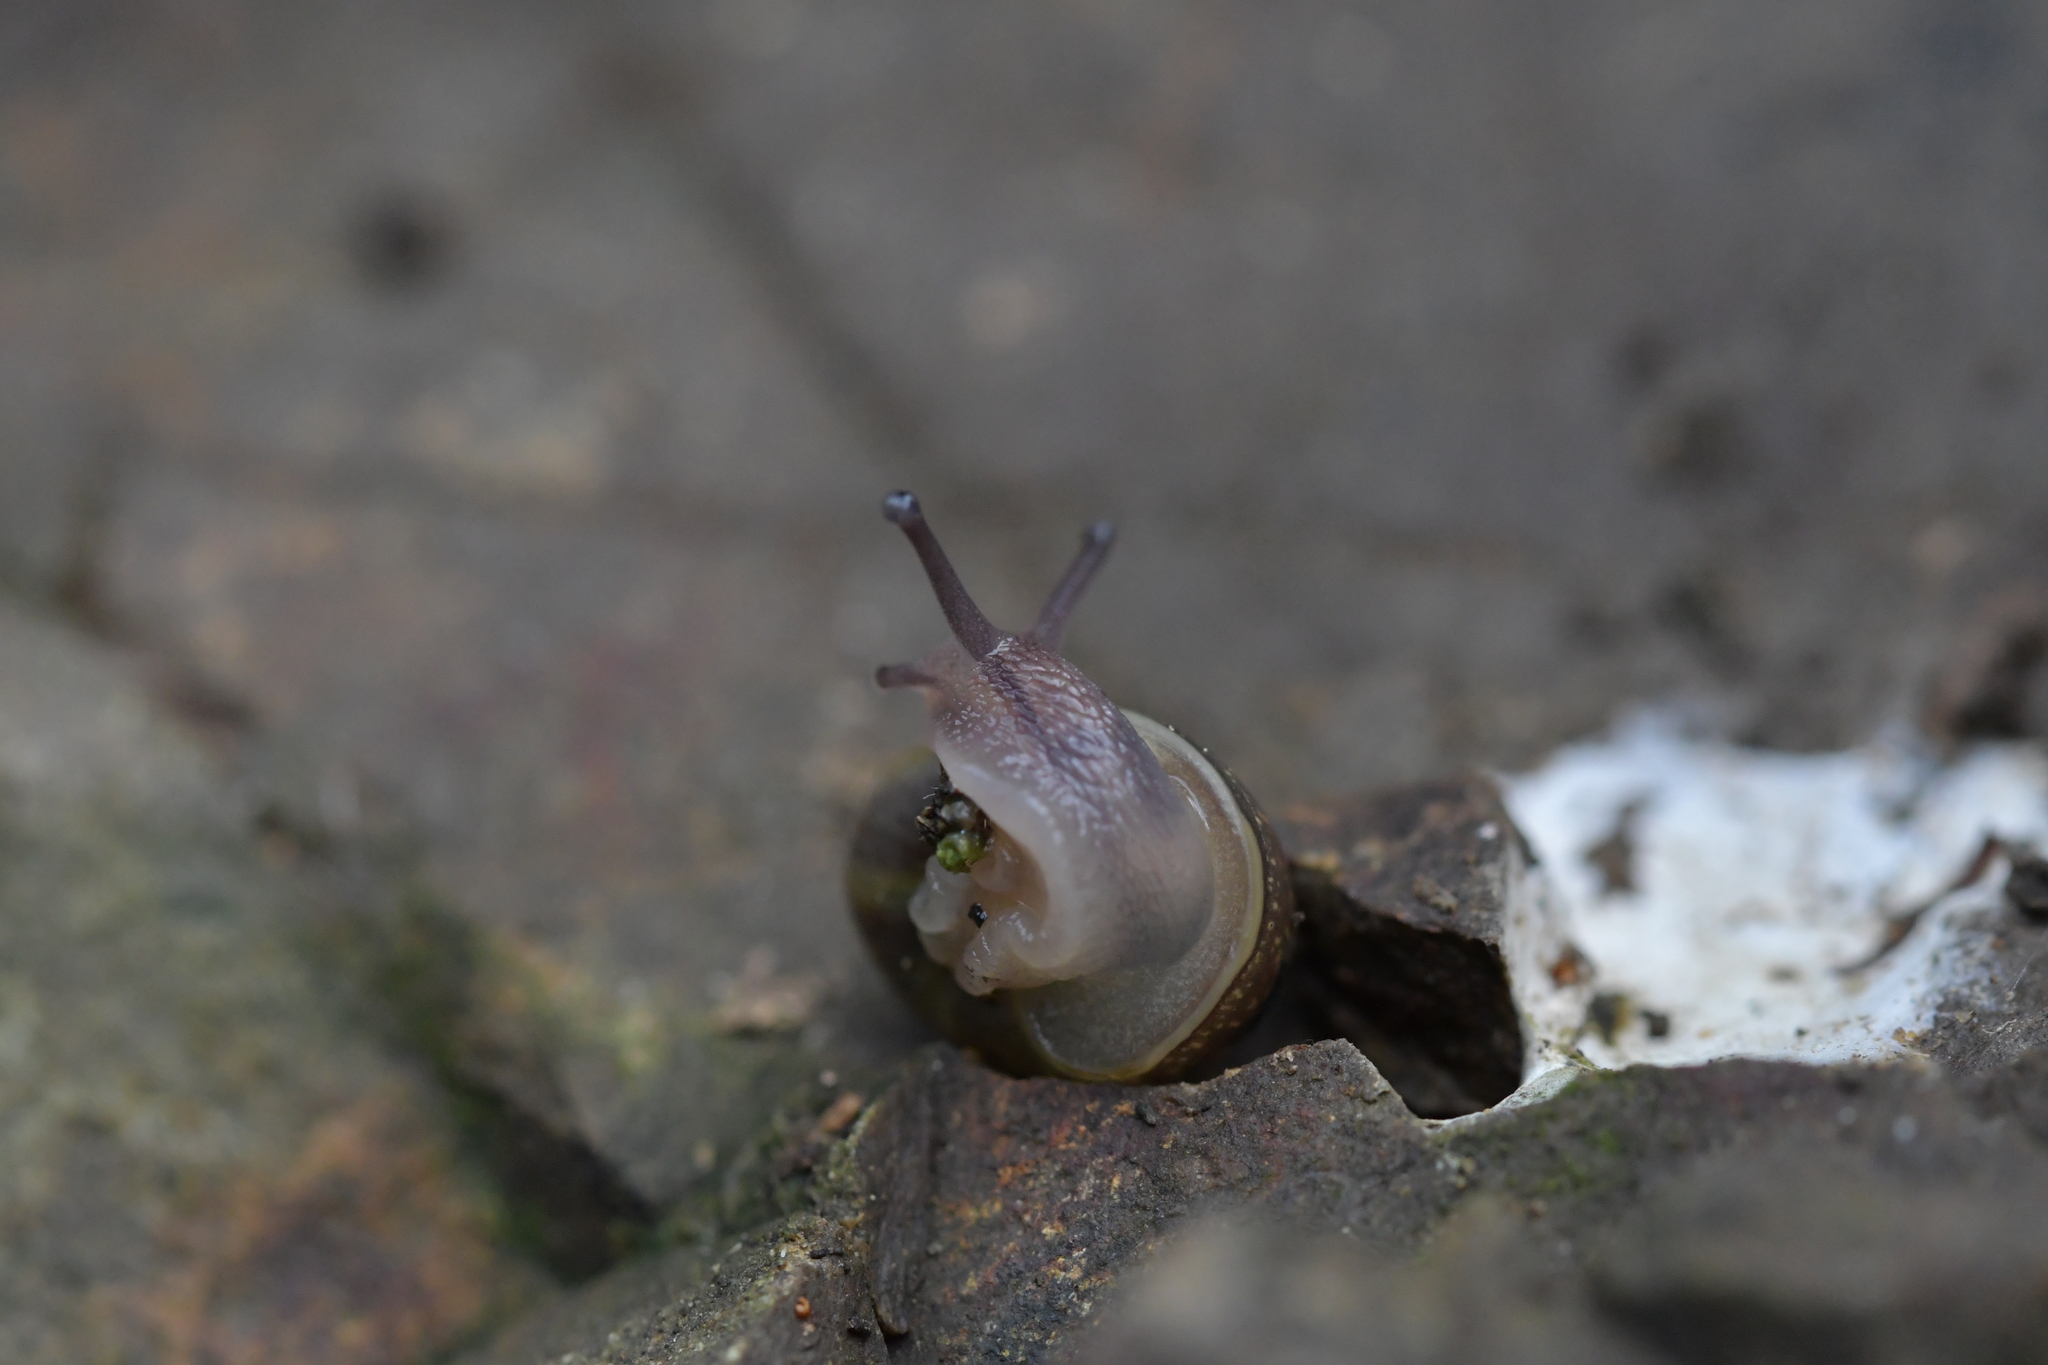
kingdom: Animalia
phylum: Mollusca
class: Gastropoda
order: Stylommatophora
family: Helicidae
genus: Cornu
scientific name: Cornu aspersum
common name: Brown garden snail
